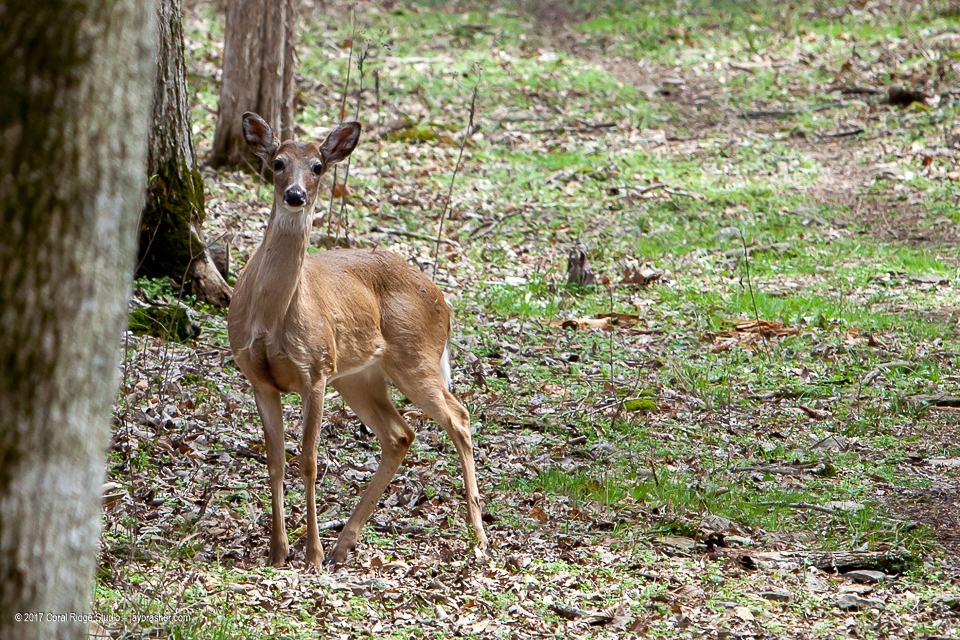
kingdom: Animalia
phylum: Chordata
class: Mammalia
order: Artiodactyla
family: Cervidae
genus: Odocoileus
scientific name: Odocoileus virginianus
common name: White-tailed deer
